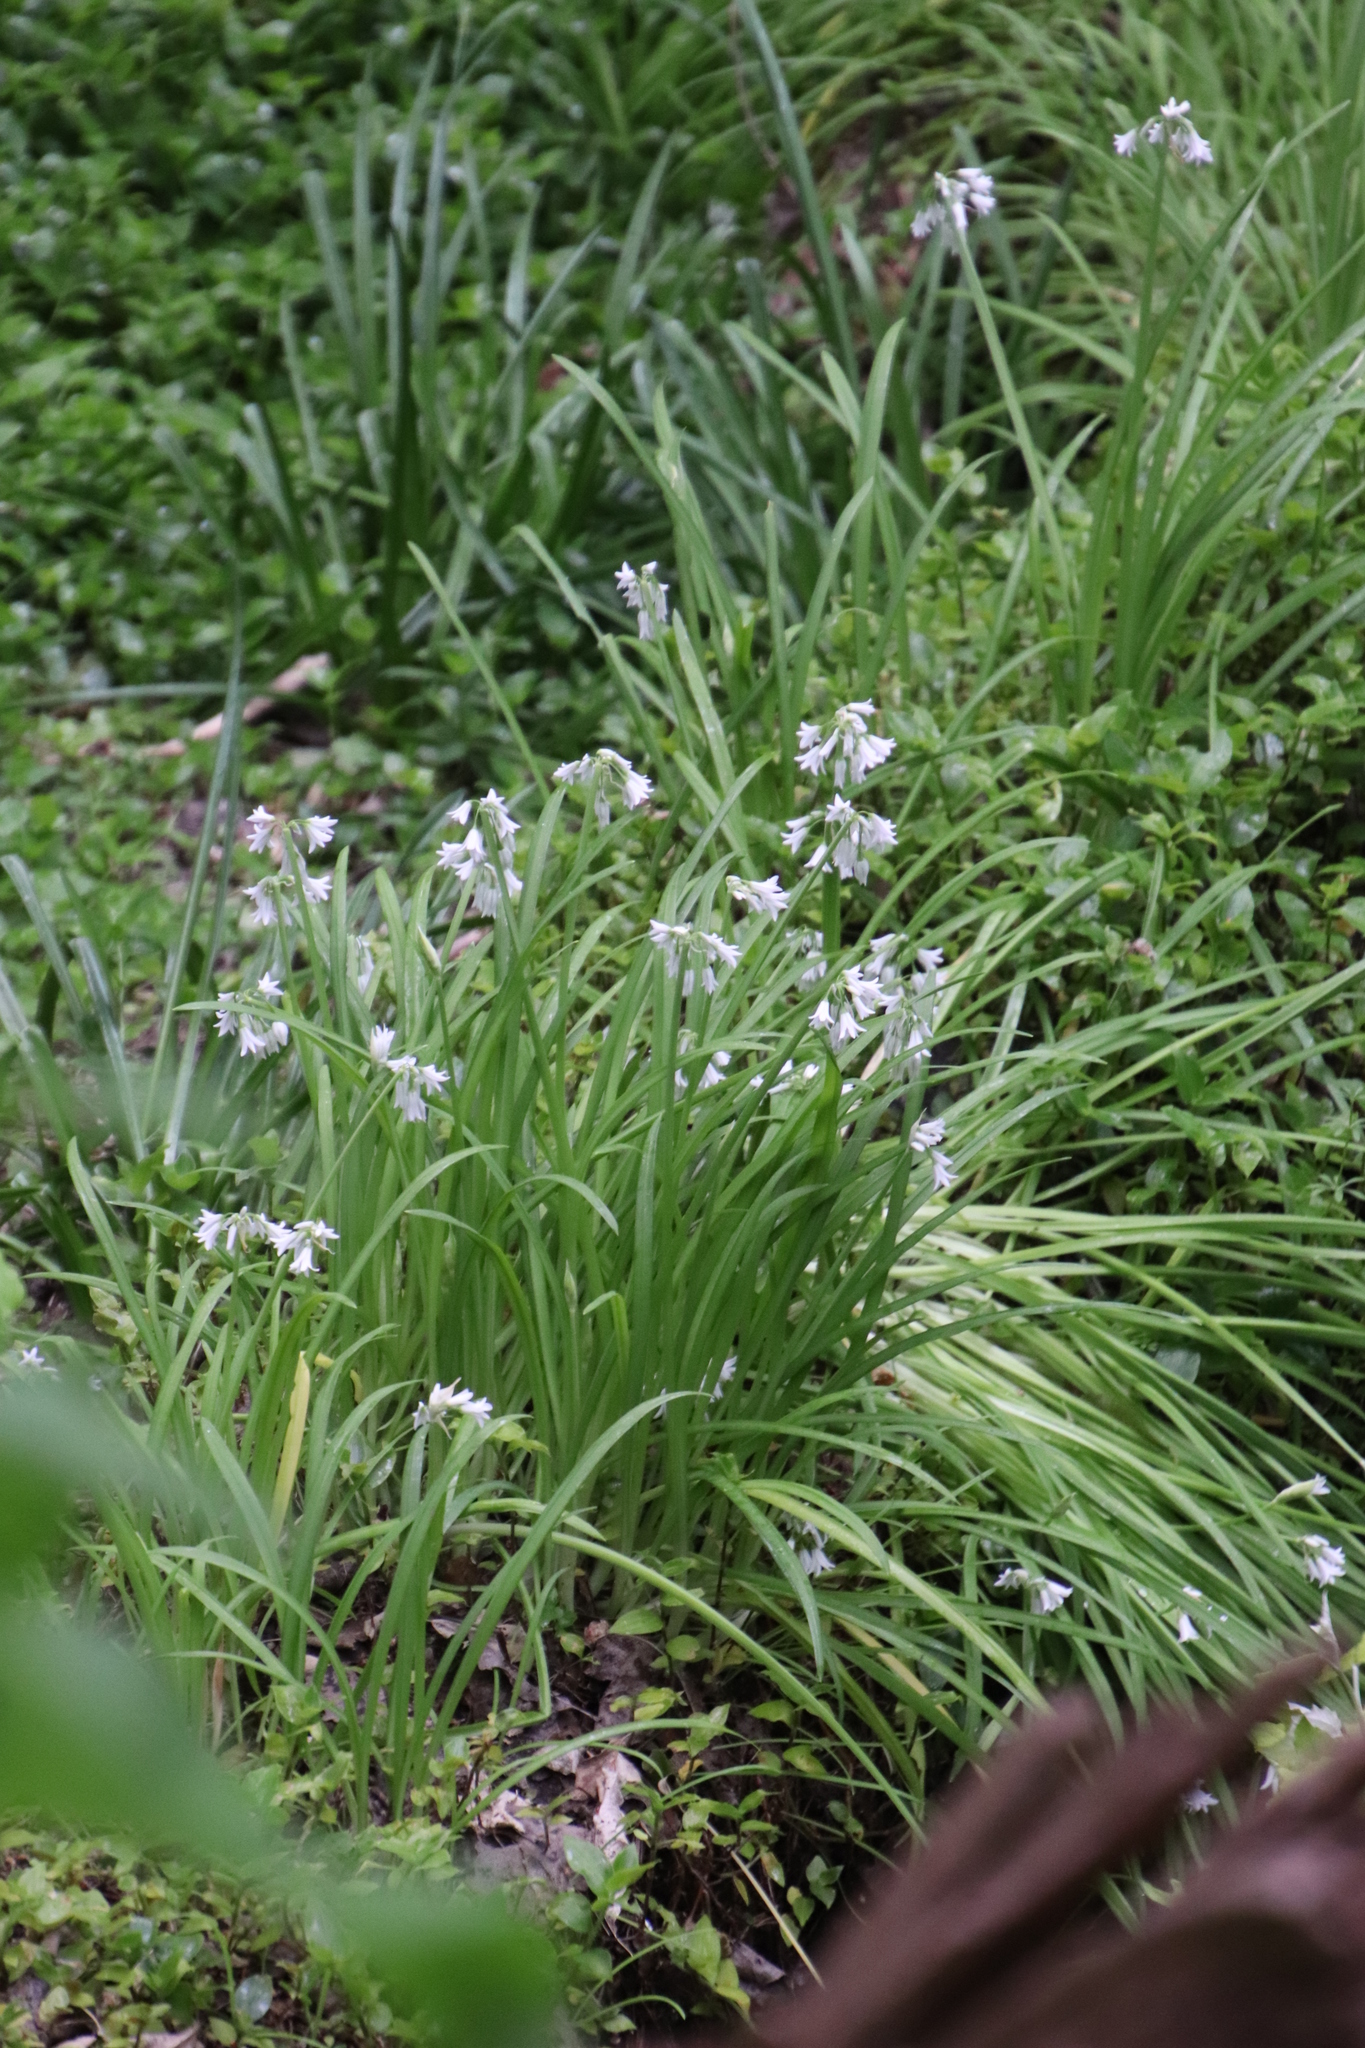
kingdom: Plantae
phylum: Tracheophyta
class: Liliopsida
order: Asparagales
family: Amaryllidaceae
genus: Allium
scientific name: Allium triquetrum
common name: Three-cornered garlic
